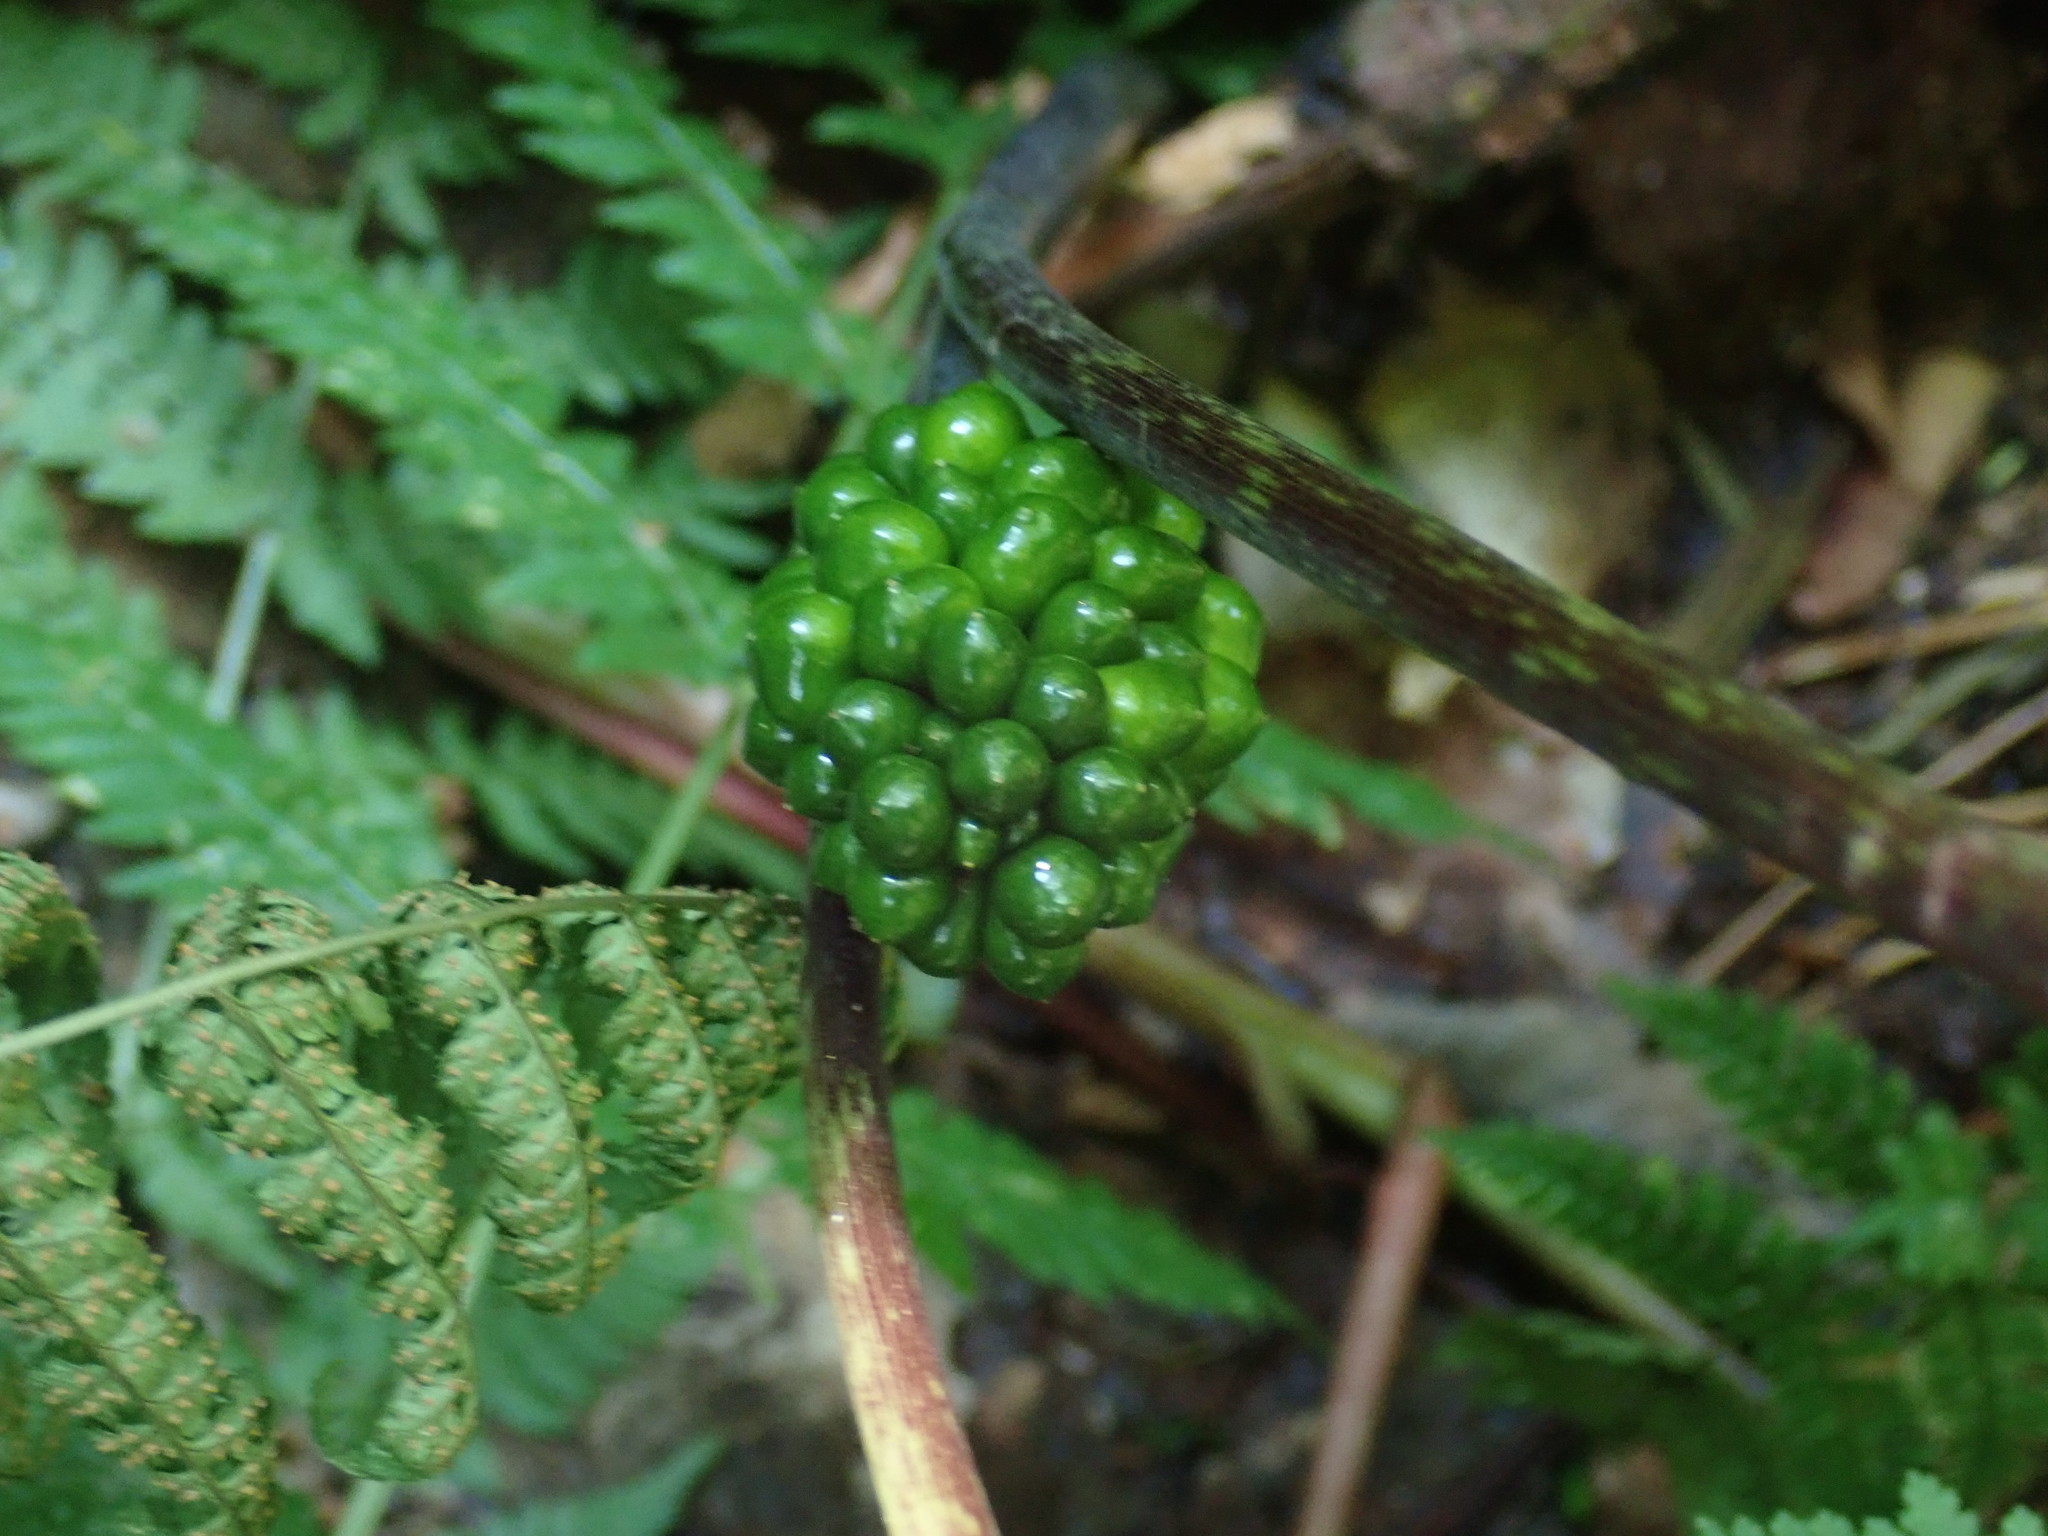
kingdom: Plantae
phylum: Tracheophyta
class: Liliopsida
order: Alismatales
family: Araceae
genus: Arisaema
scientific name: Arisaema triphyllum
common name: Jack-in-the-pulpit
